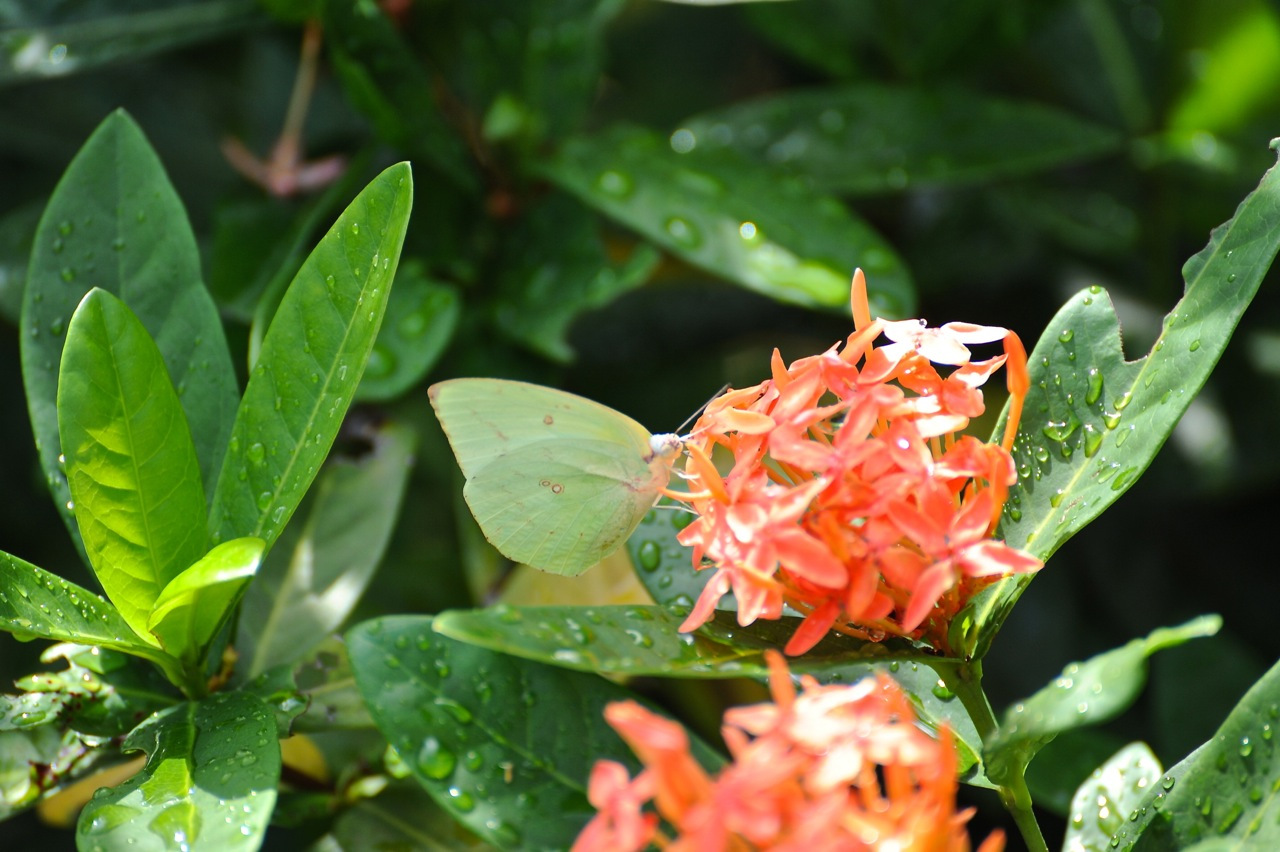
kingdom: Animalia
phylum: Arthropoda
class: Insecta
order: Lepidoptera
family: Pieridae
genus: Catopsilia
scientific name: Catopsilia pomona
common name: Common emigrant
